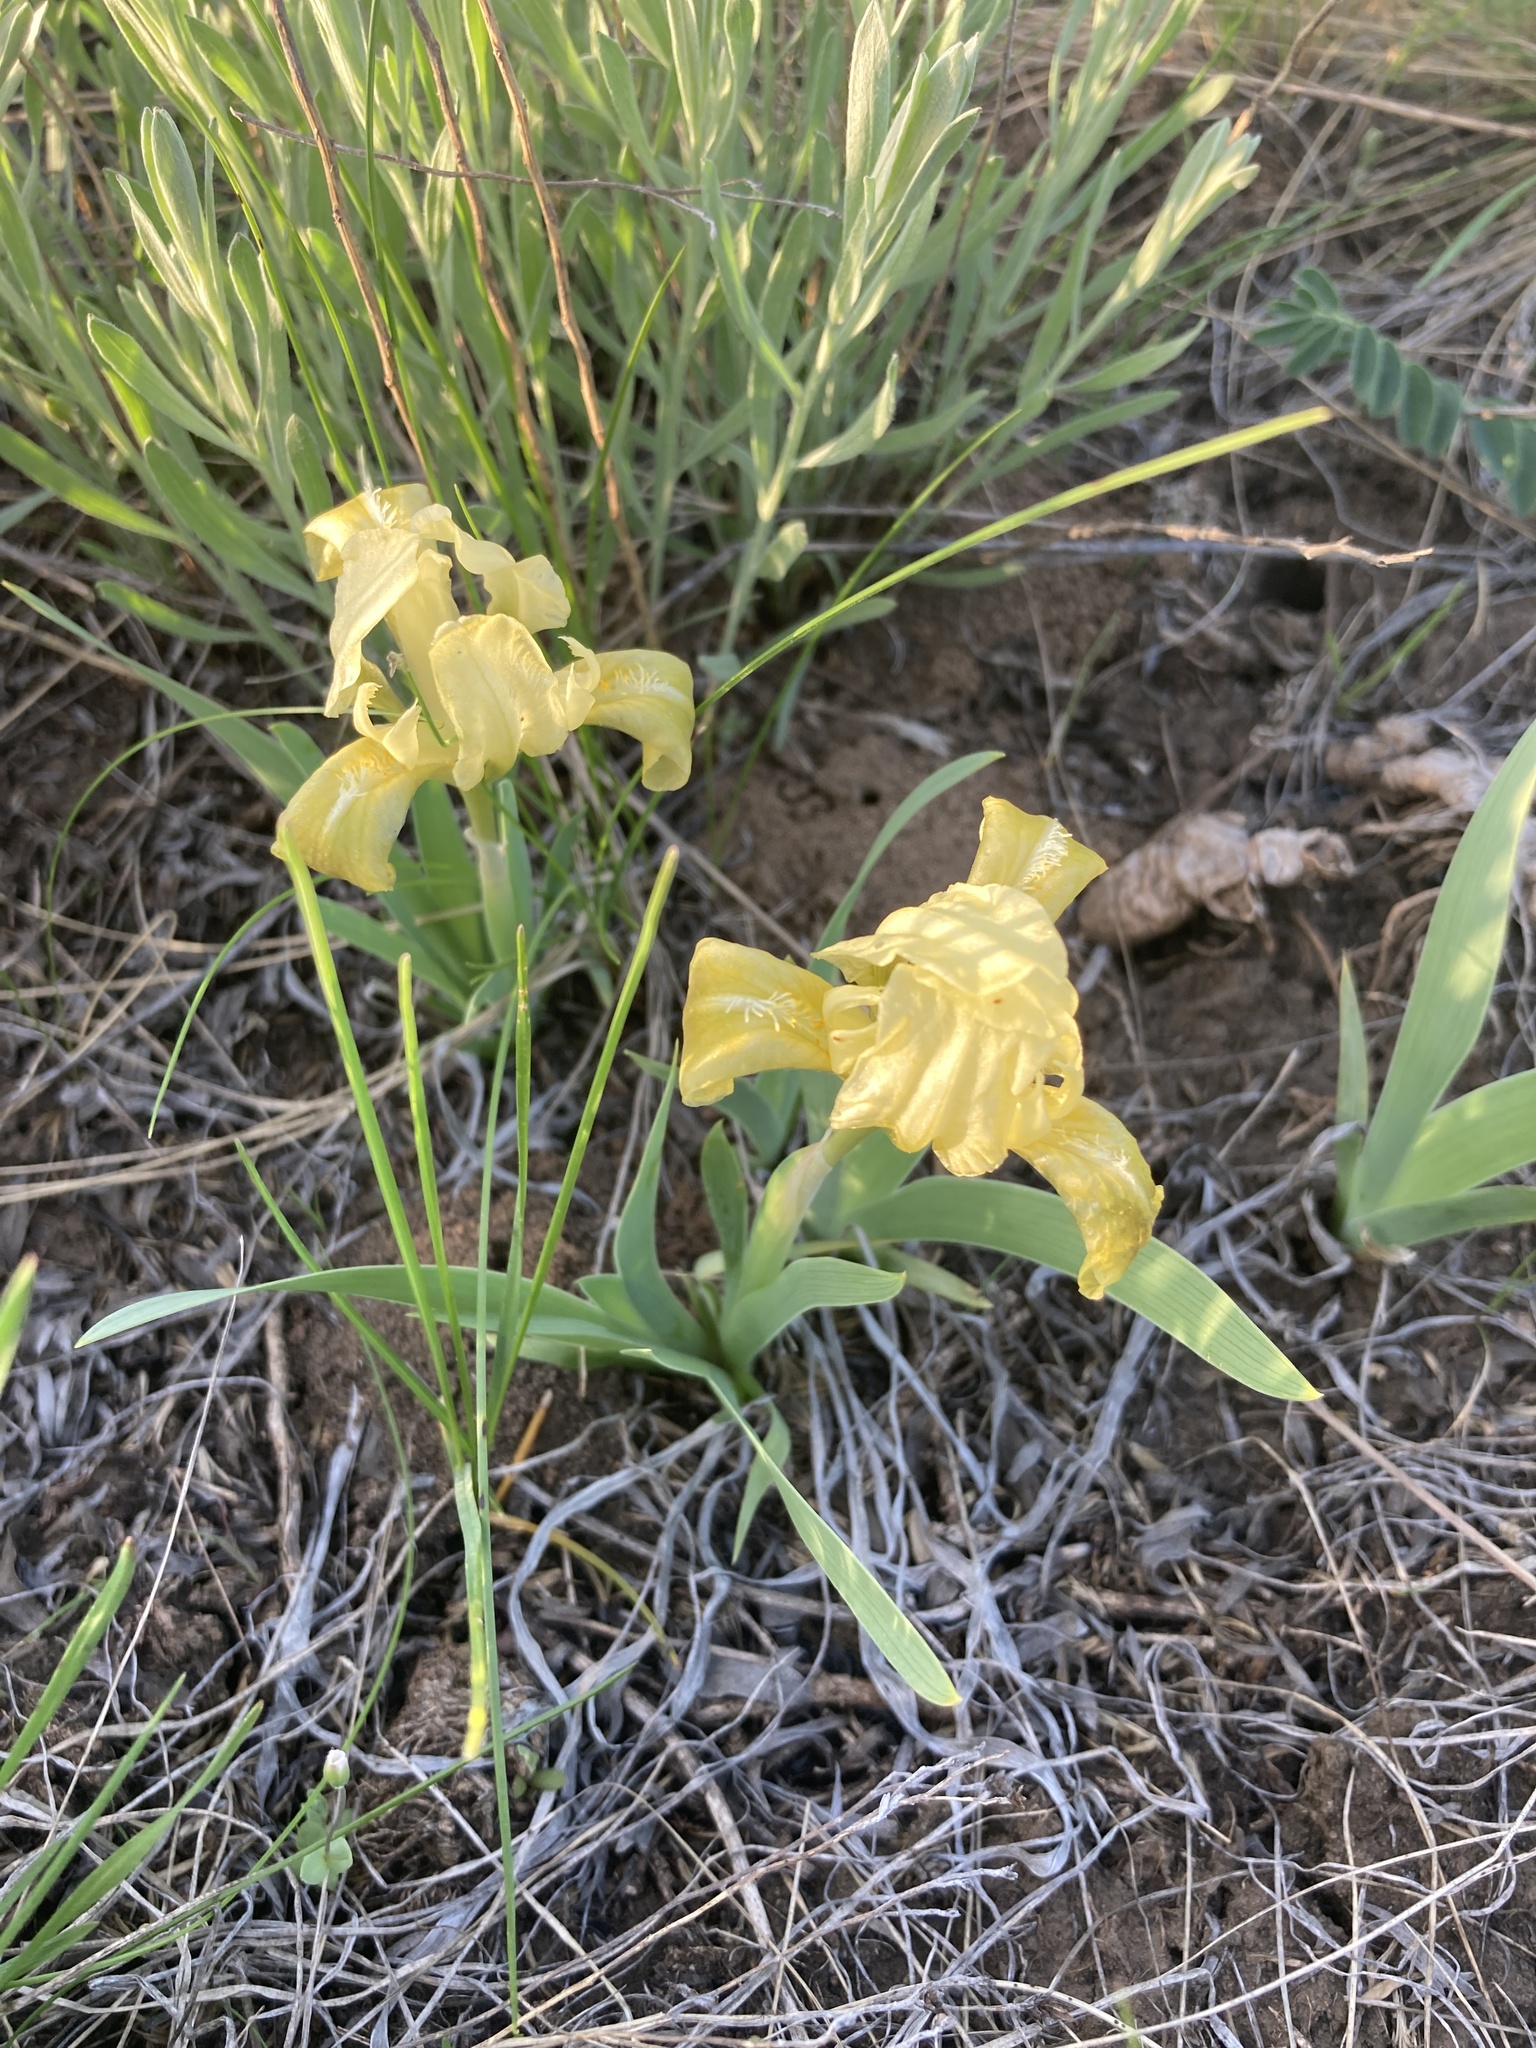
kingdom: Plantae
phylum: Tracheophyta
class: Liliopsida
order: Asparagales
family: Iridaceae
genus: Iris
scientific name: Iris pumila
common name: Dwarf iris
